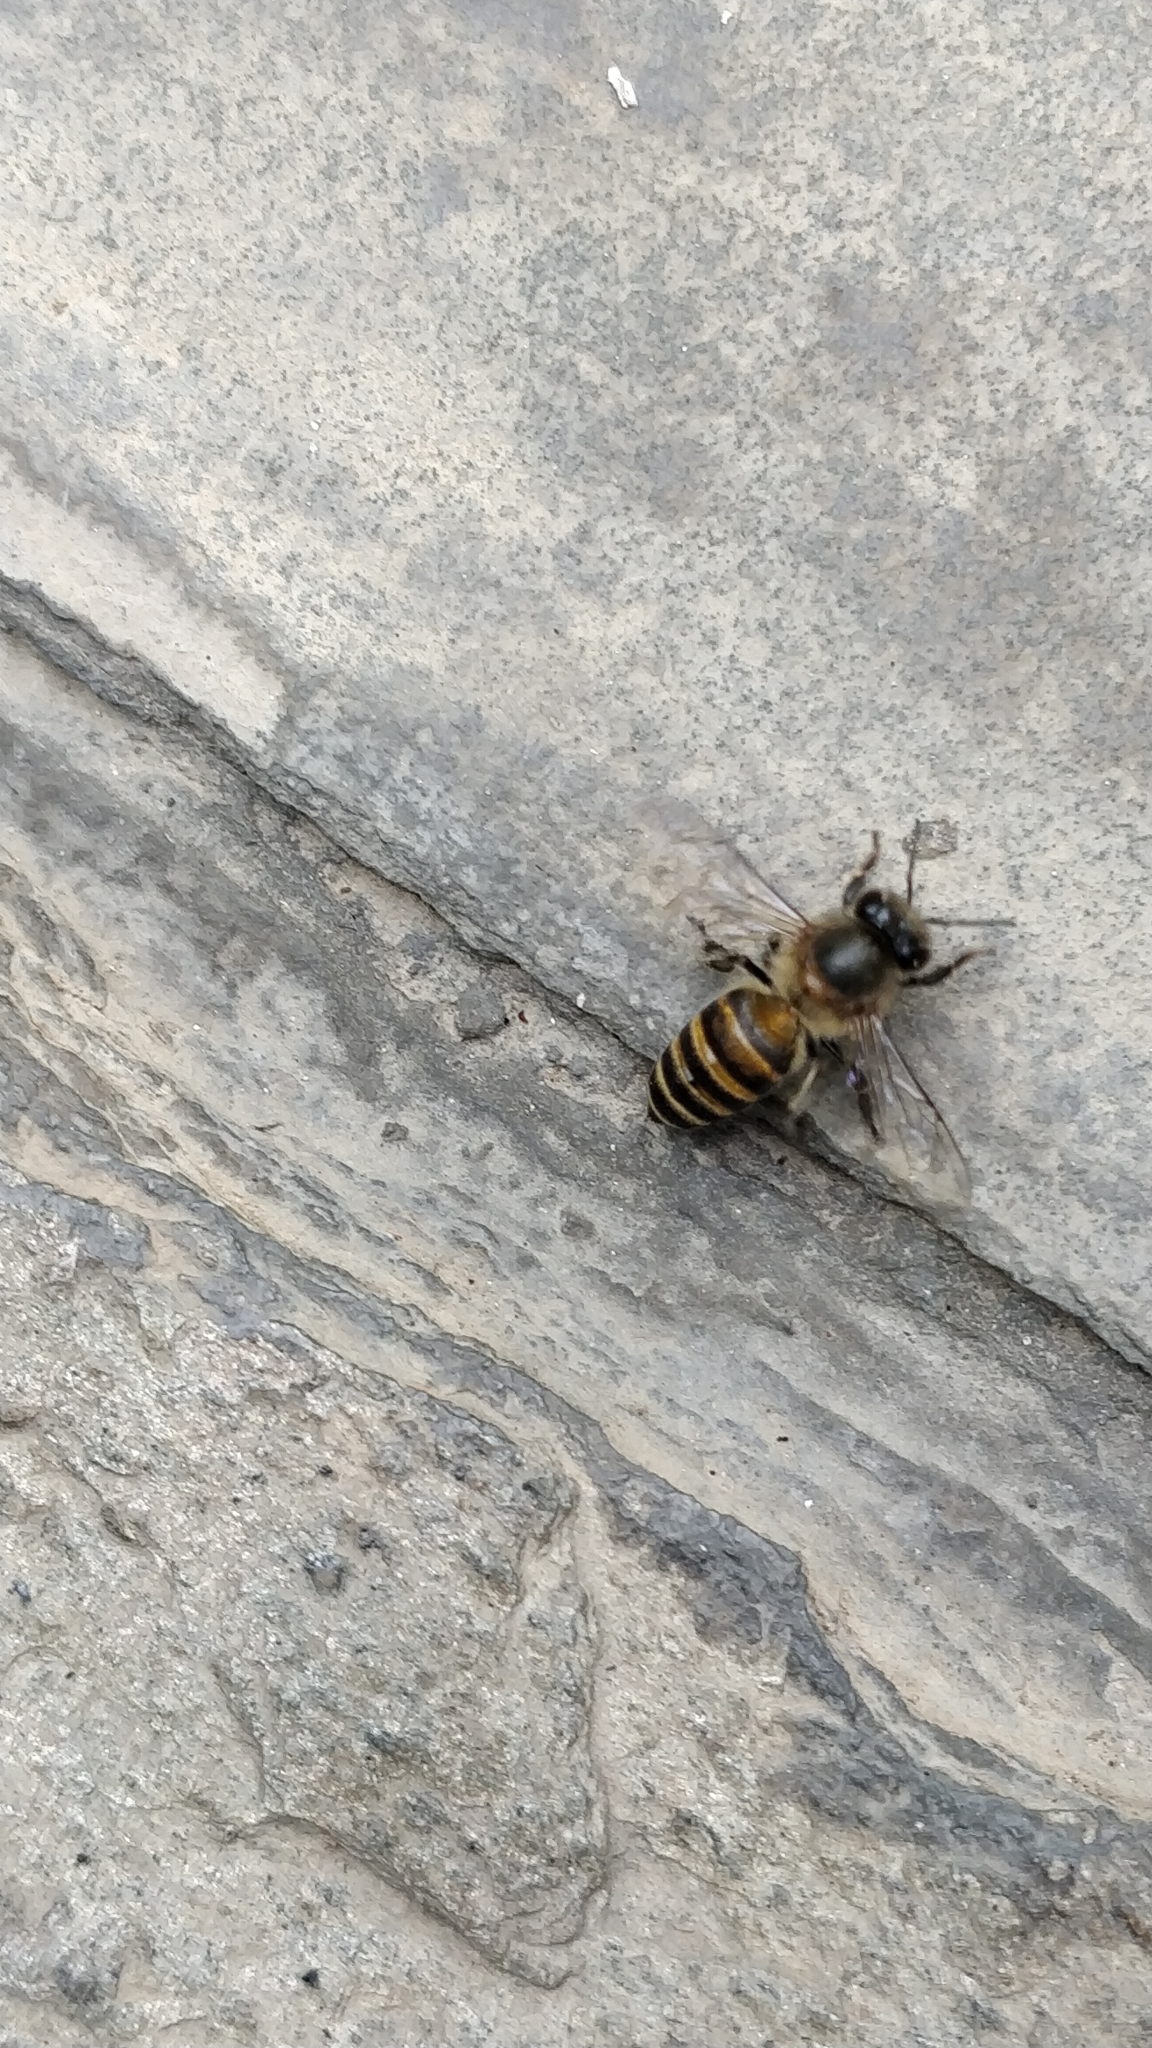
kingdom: Animalia
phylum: Arthropoda
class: Insecta
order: Hymenoptera
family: Apidae
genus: Apis
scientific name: Apis cerana
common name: Honey bee
